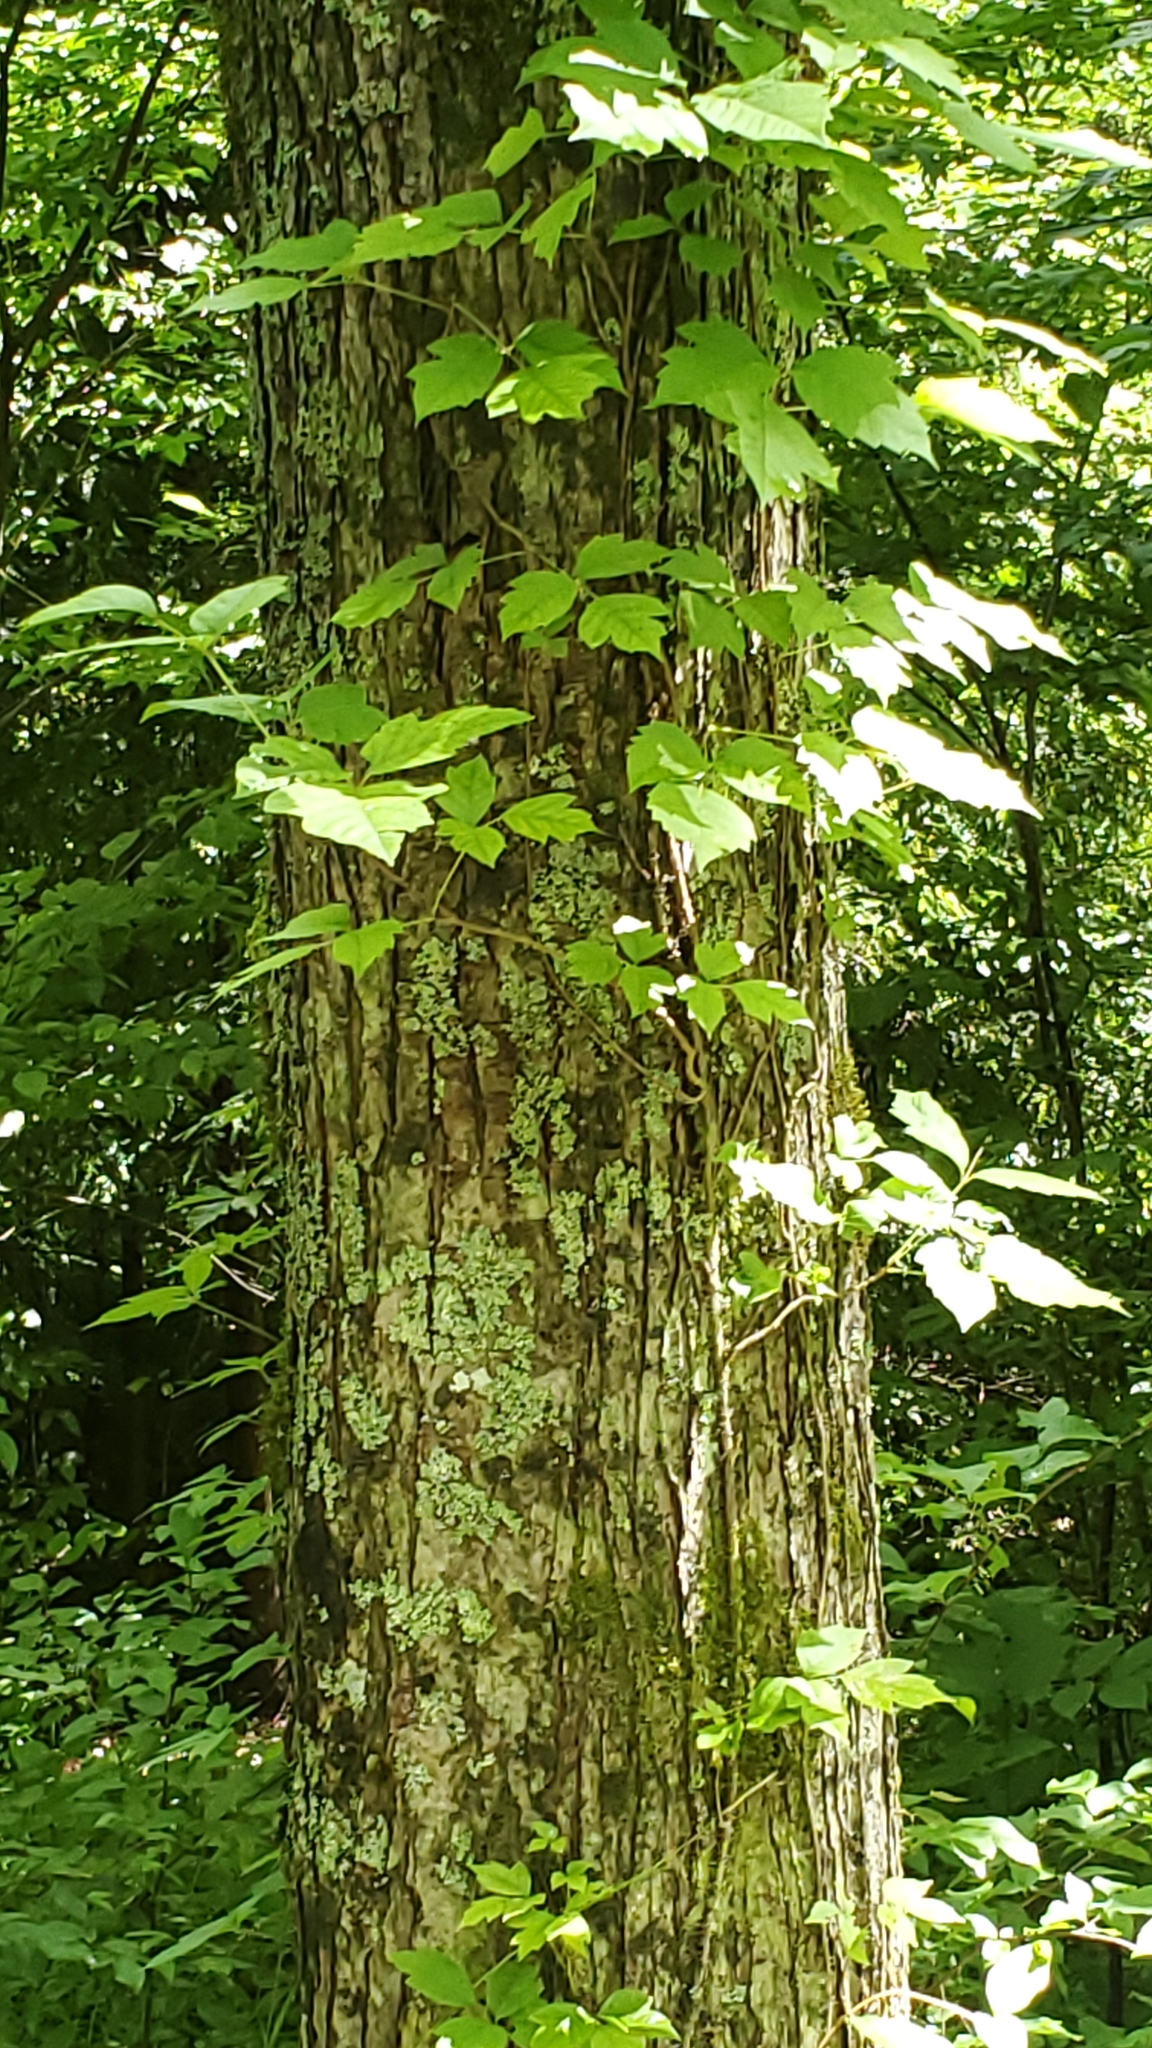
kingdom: Plantae
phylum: Tracheophyta
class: Magnoliopsida
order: Sapindales
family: Anacardiaceae
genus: Toxicodendron
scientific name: Toxicodendron radicans
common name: Poison ivy
